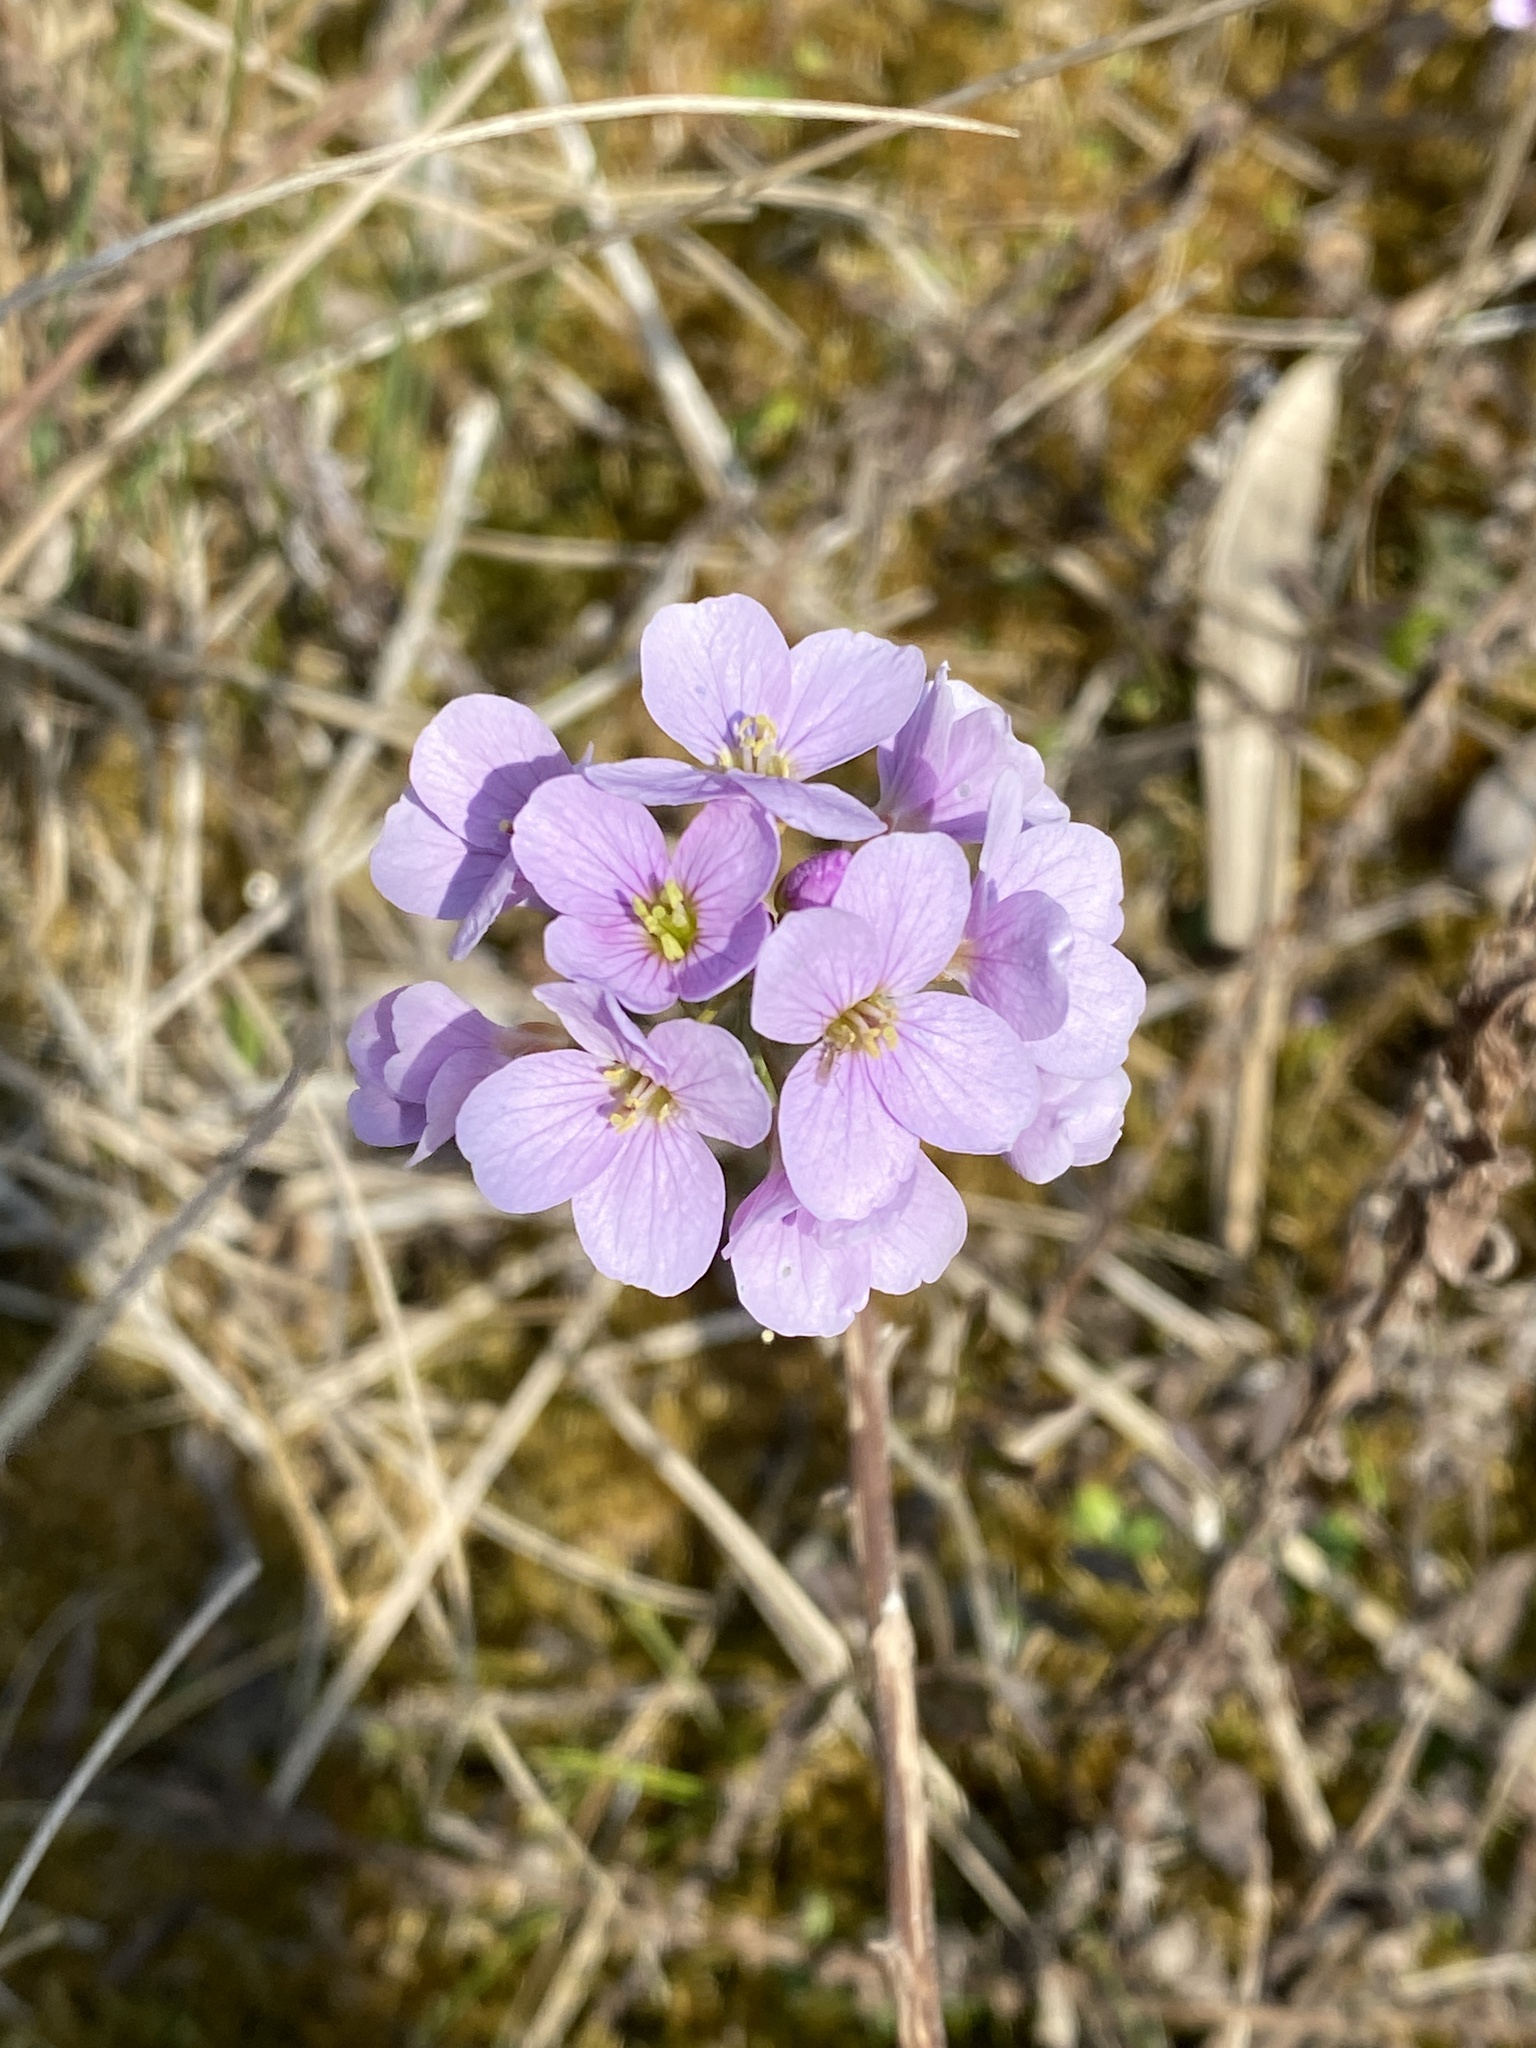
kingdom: Plantae
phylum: Tracheophyta
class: Magnoliopsida
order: Brassicales
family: Brassicaceae
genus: Cardamine
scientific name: Cardamine pratensis
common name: Cuckoo flower
